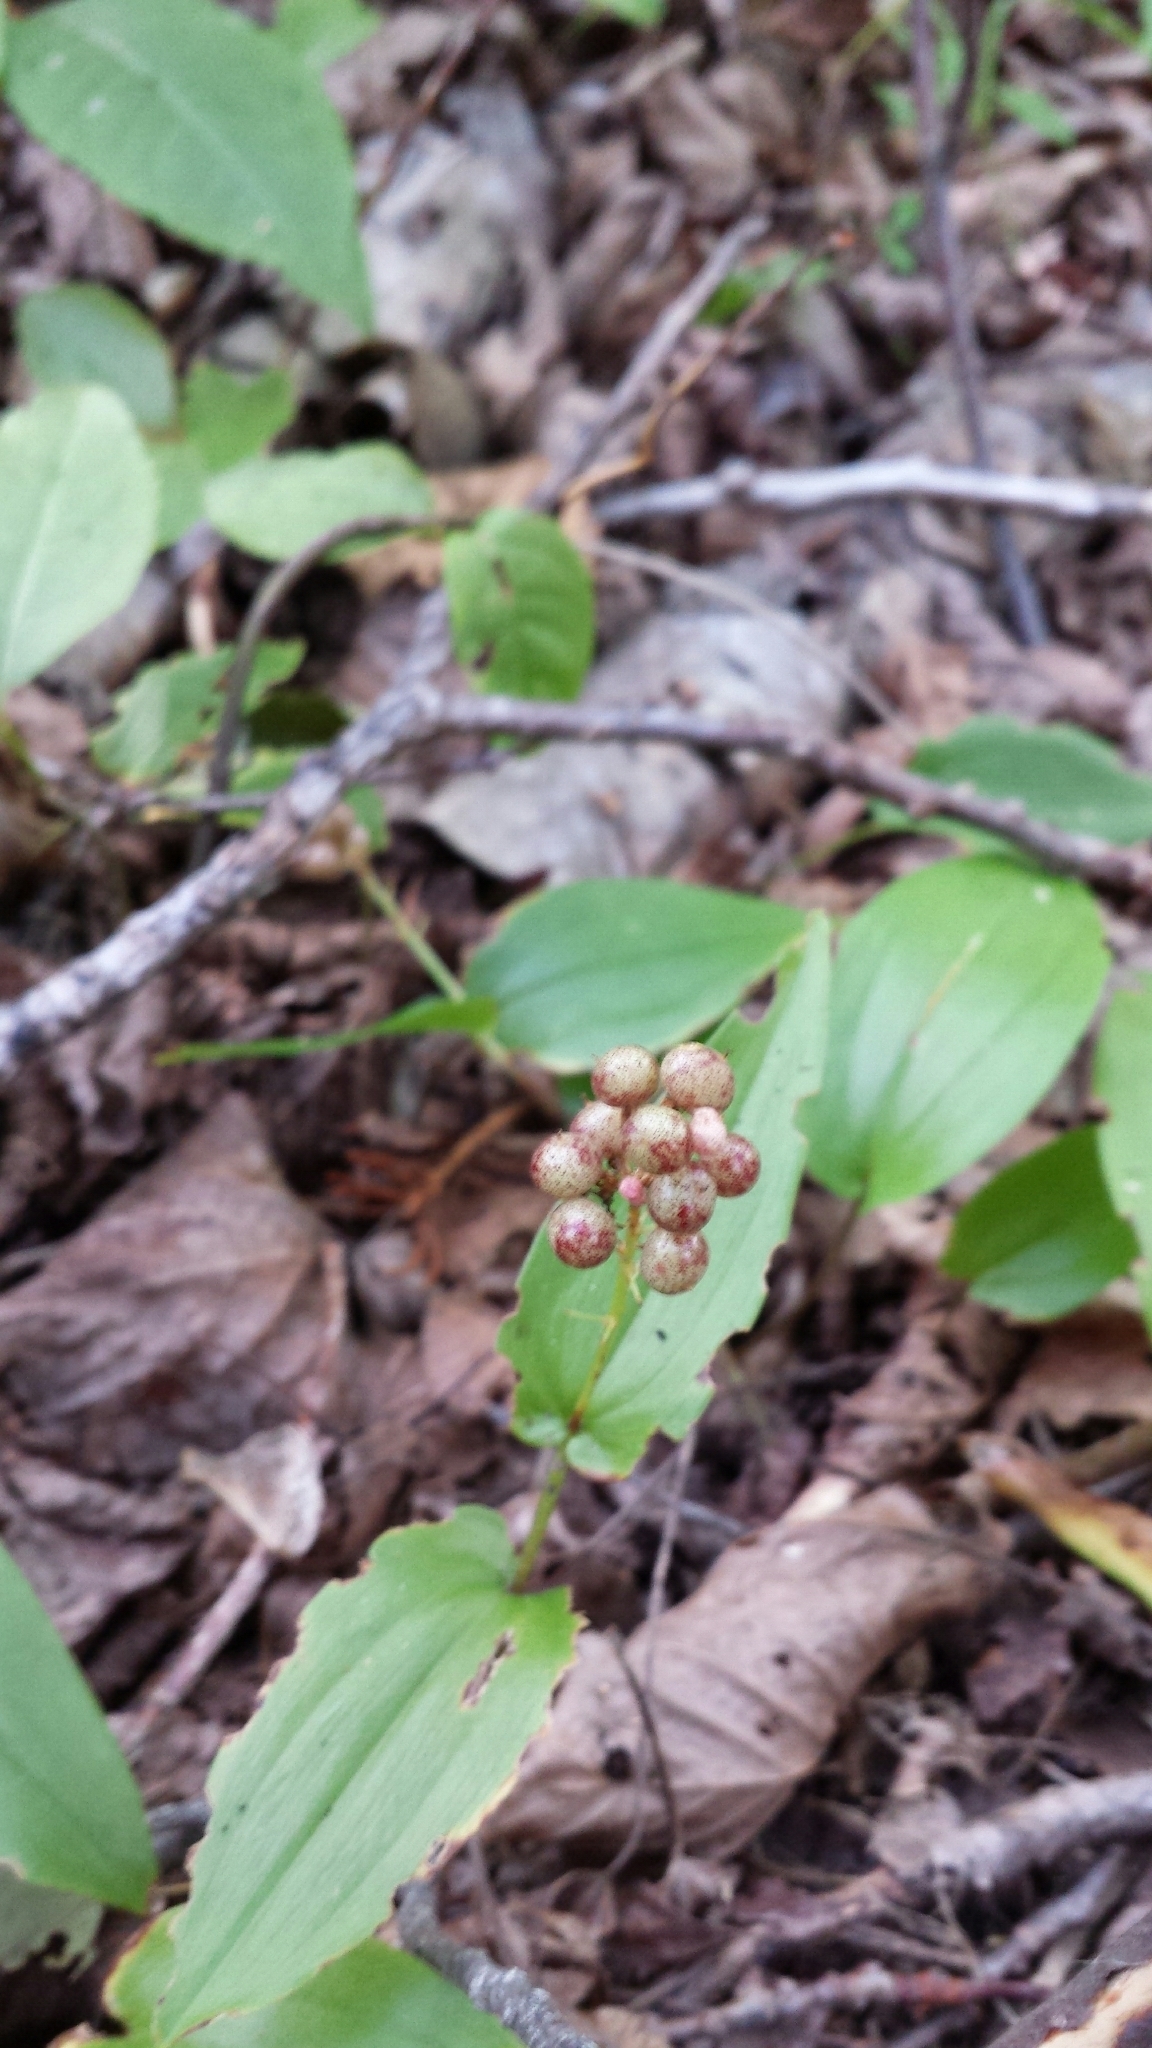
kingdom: Plantae
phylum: Tracheophyta
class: Liliopsida
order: Asparagales
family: Asparagaceae
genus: Maianthemum
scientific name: Maianthemum canadense
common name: False lily-of-the-valley
